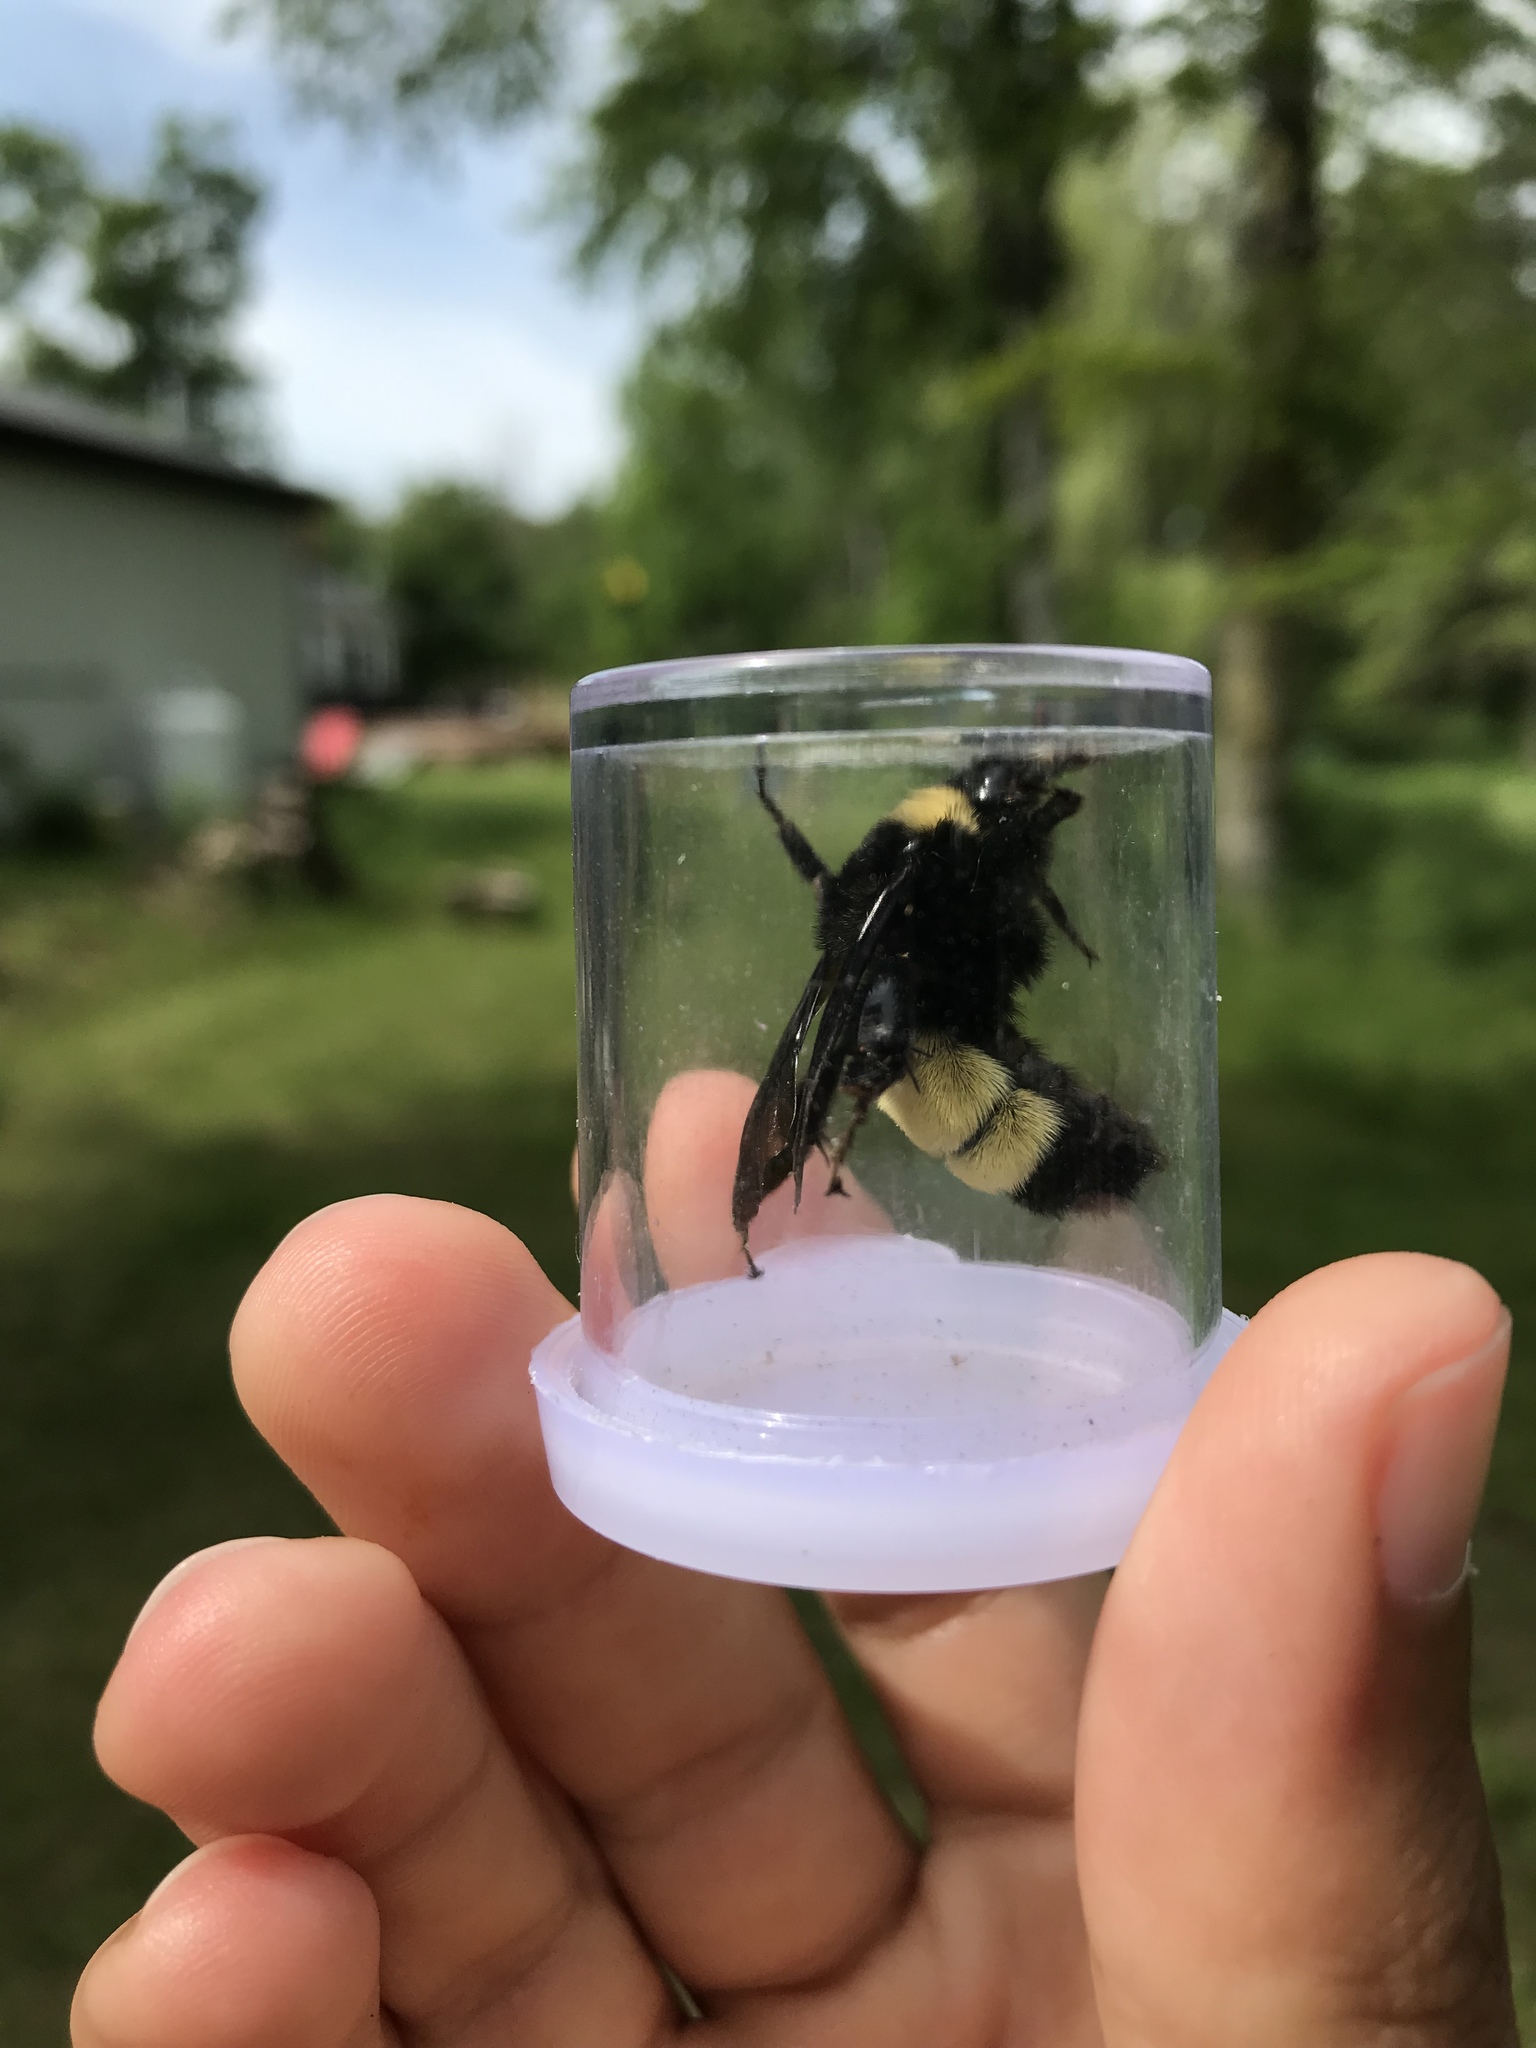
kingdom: Animalia
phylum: Arthropoda
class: Insecta
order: Hymenoptera
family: Apidae
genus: Bombus
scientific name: Bombus pensylvanicus
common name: Bumble bee
